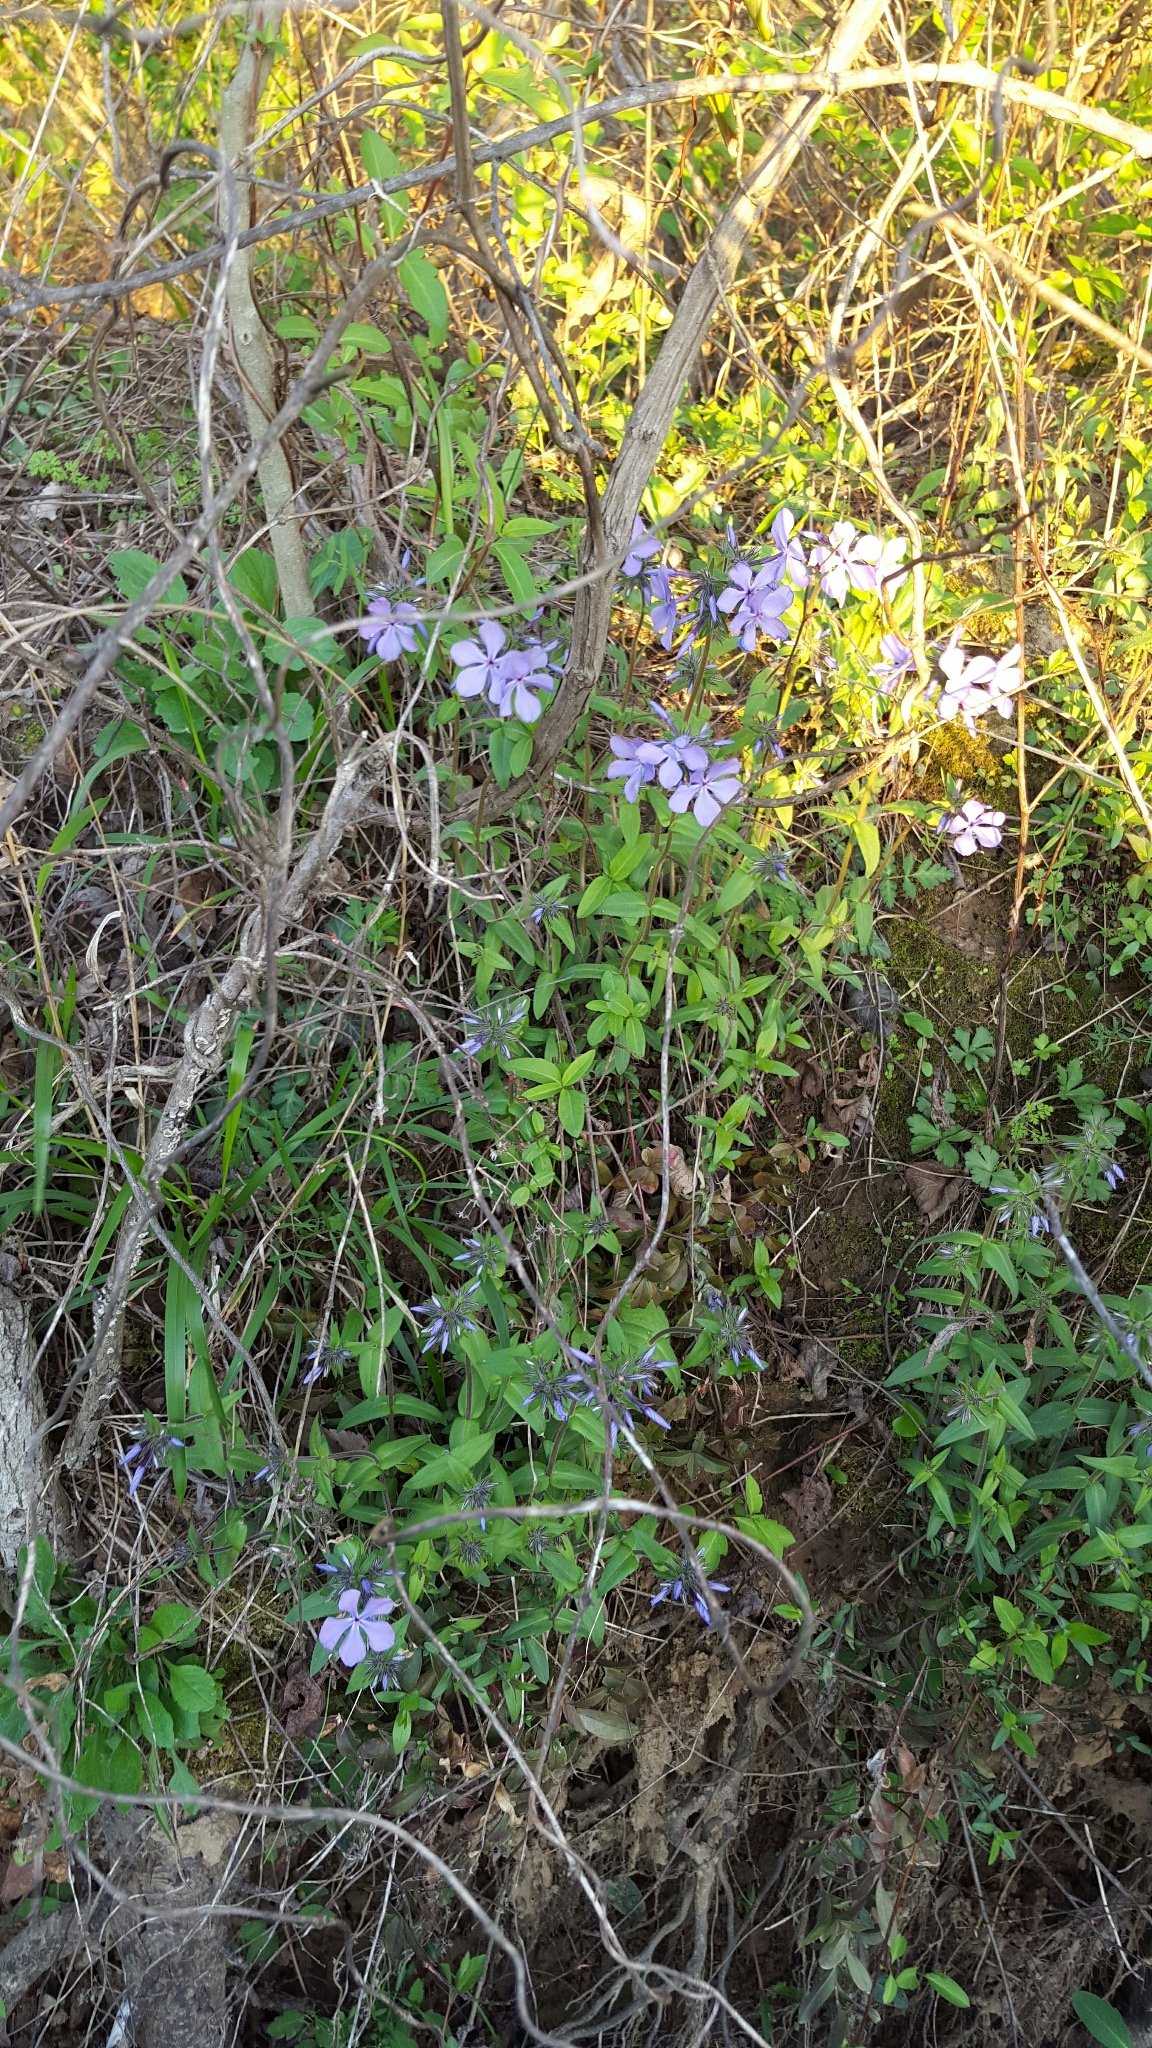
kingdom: Plantae
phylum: Tracheophyta
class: Magnoliopsida
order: Ericales
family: Polemoniaceae
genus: Phlox
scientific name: Phlox divaricata
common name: Blue phlox
